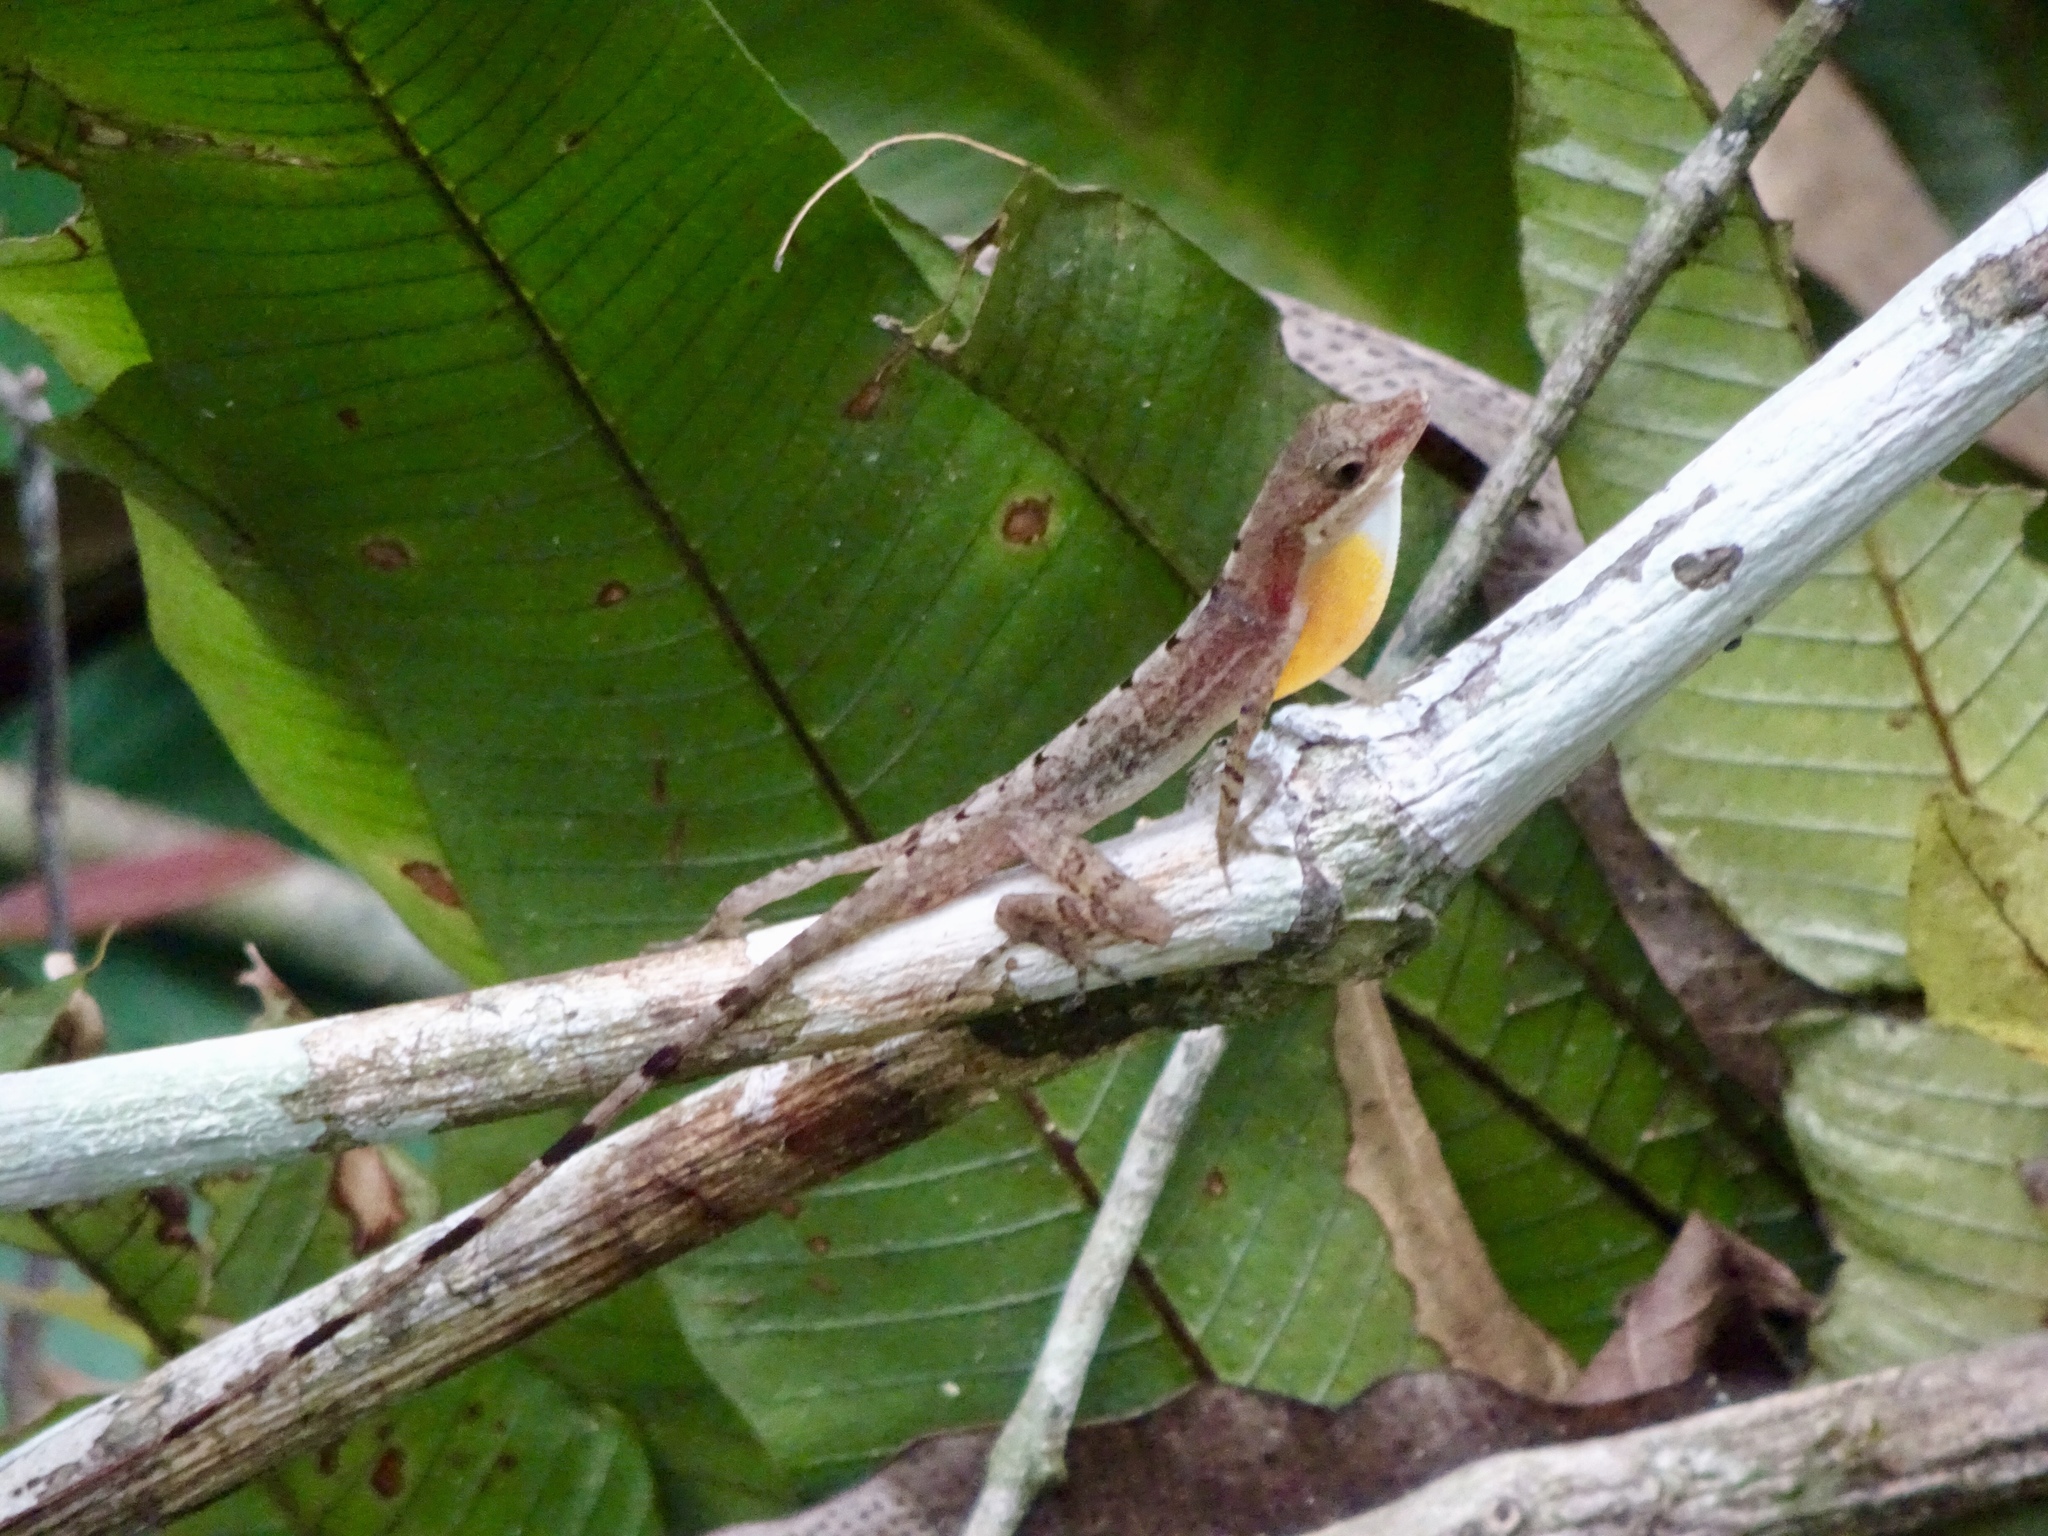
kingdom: Animalia
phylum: Chordata
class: Squamata
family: Dactyloidae
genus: Anolis
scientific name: Anolis apletophallus
